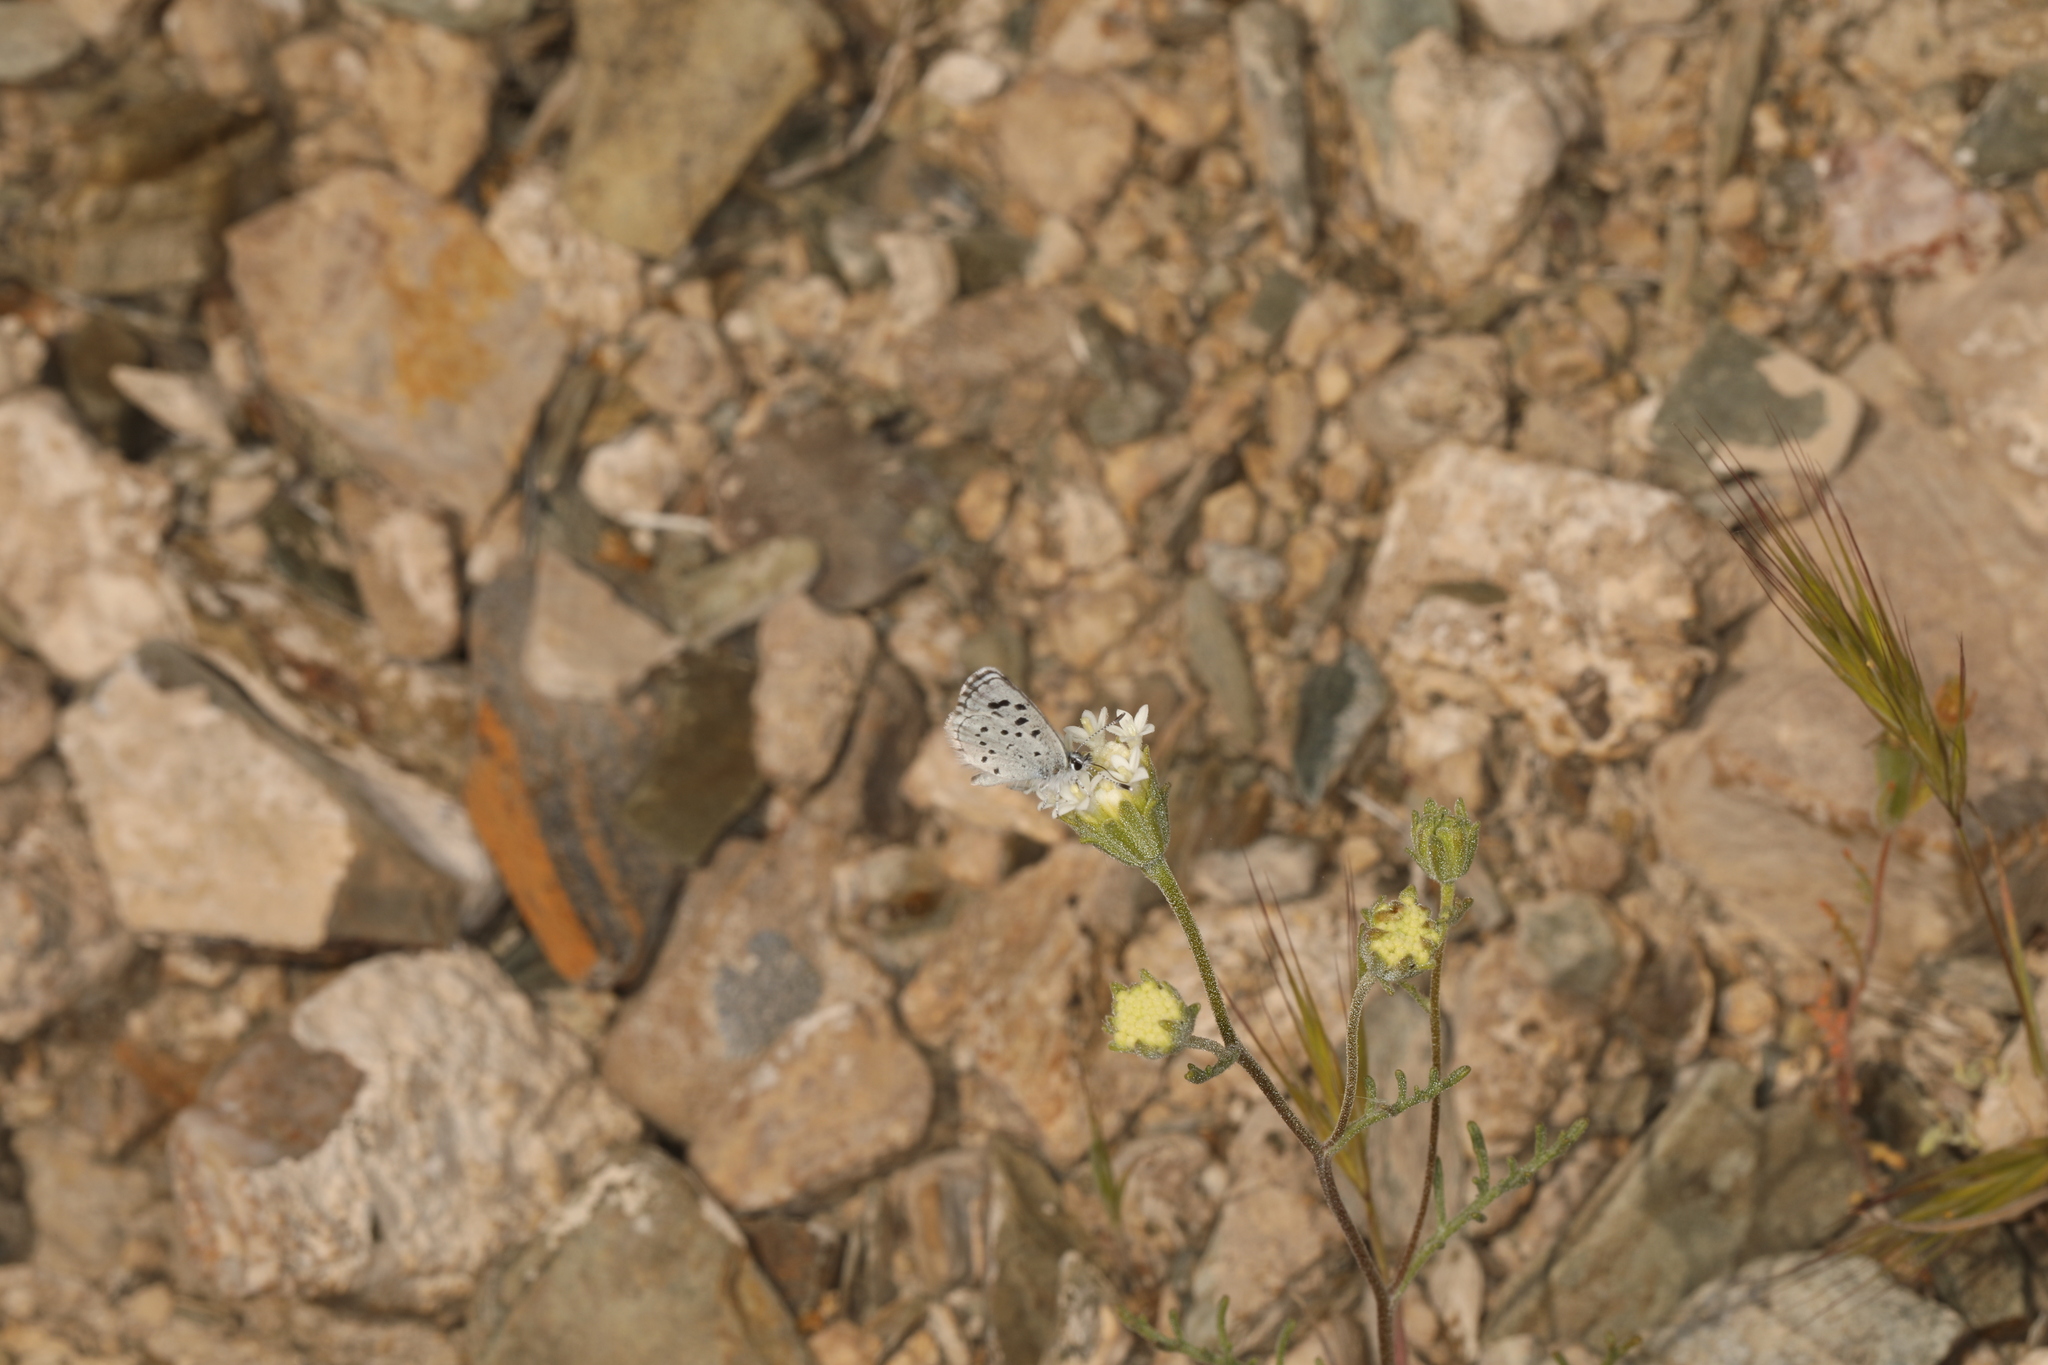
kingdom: Plantae
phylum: Tracheophyta
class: Magnoliopsida
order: Asterales
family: Asteraceae
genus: Chaenactis
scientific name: Chaenactis stevioides
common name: Desert pincushion
